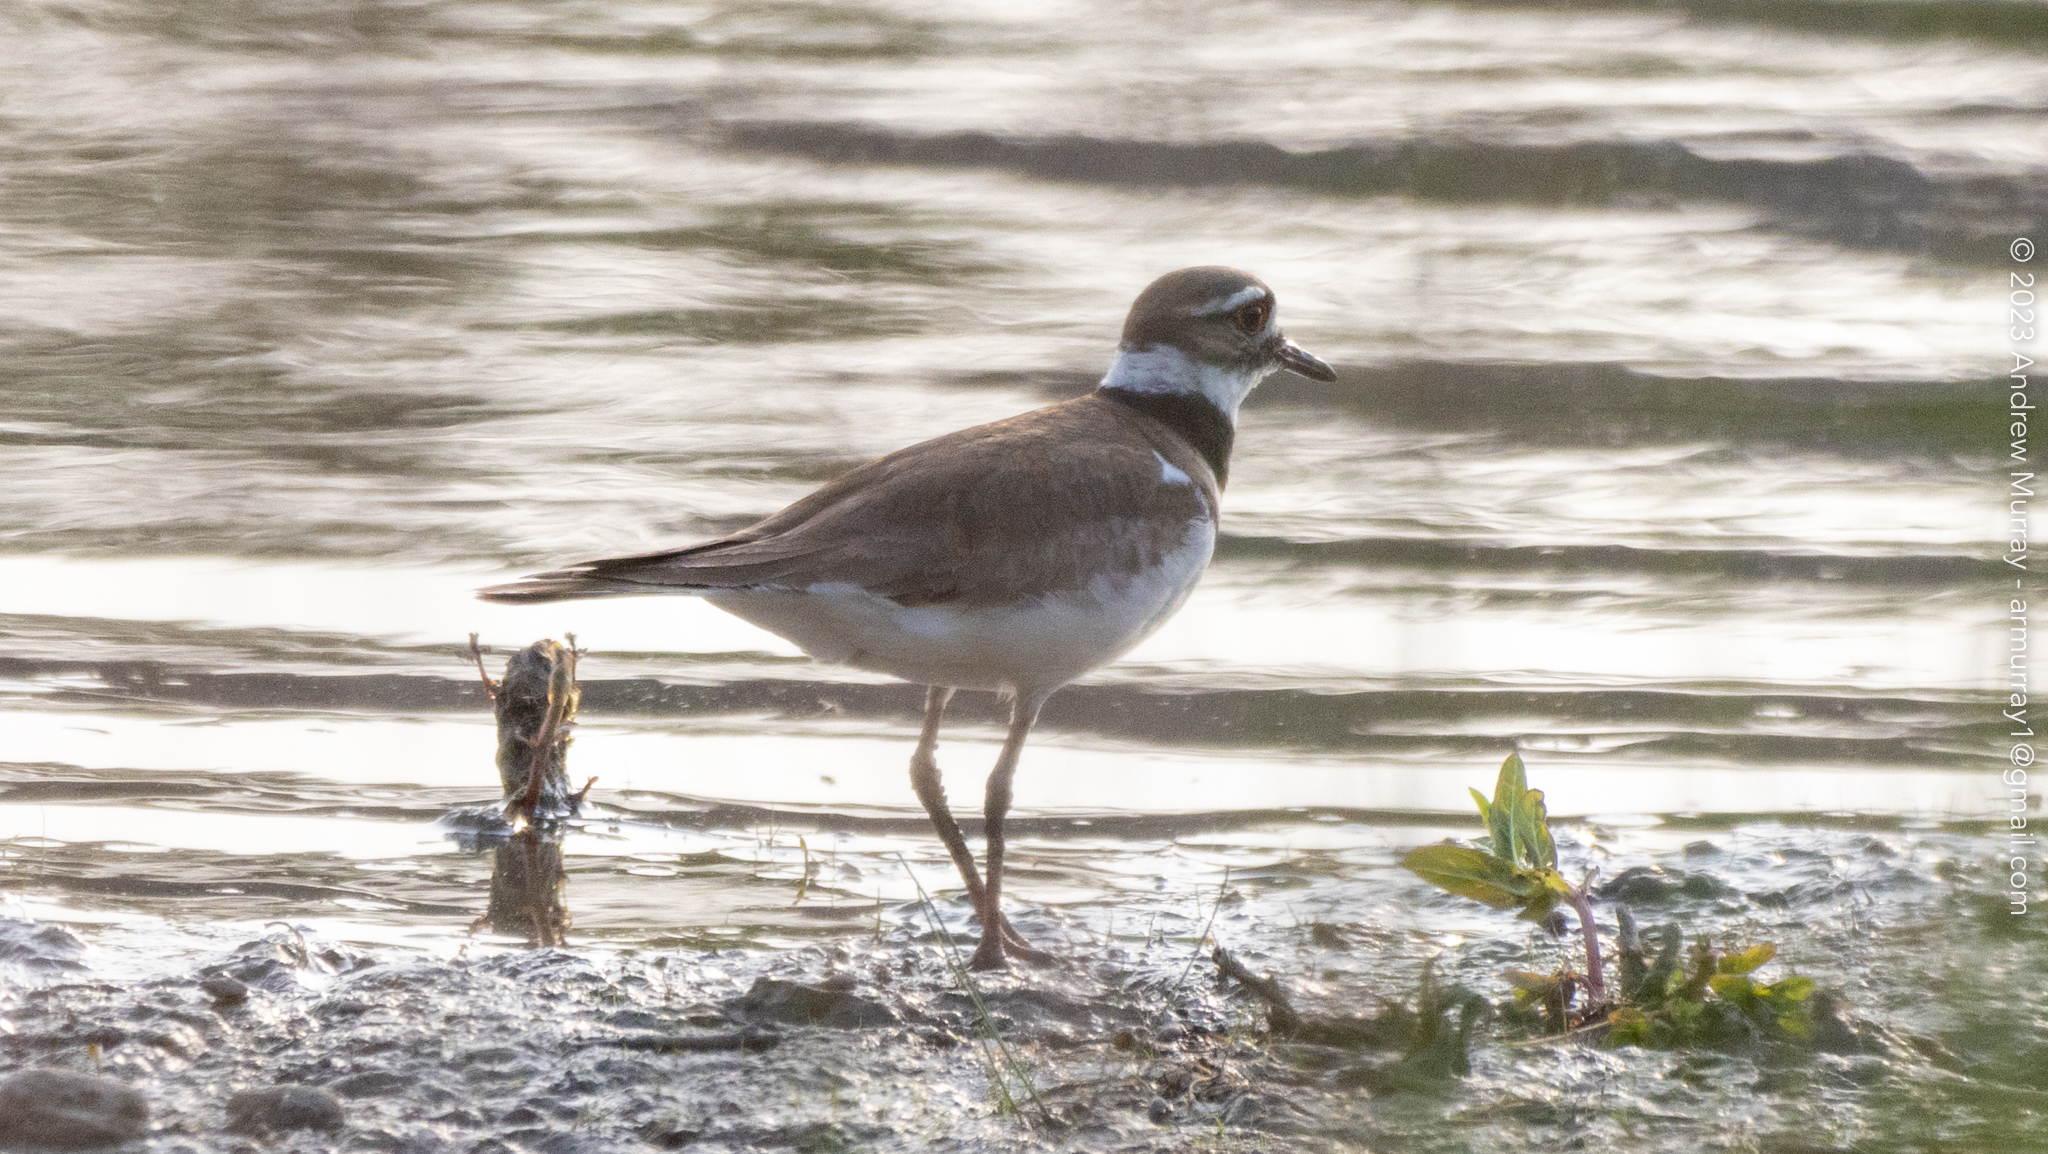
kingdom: Animalia
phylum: Chordata
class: Aves
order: Charadriiformes
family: Charadriidae
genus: Charadrius
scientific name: Charadrius vociferus
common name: Killdeer
